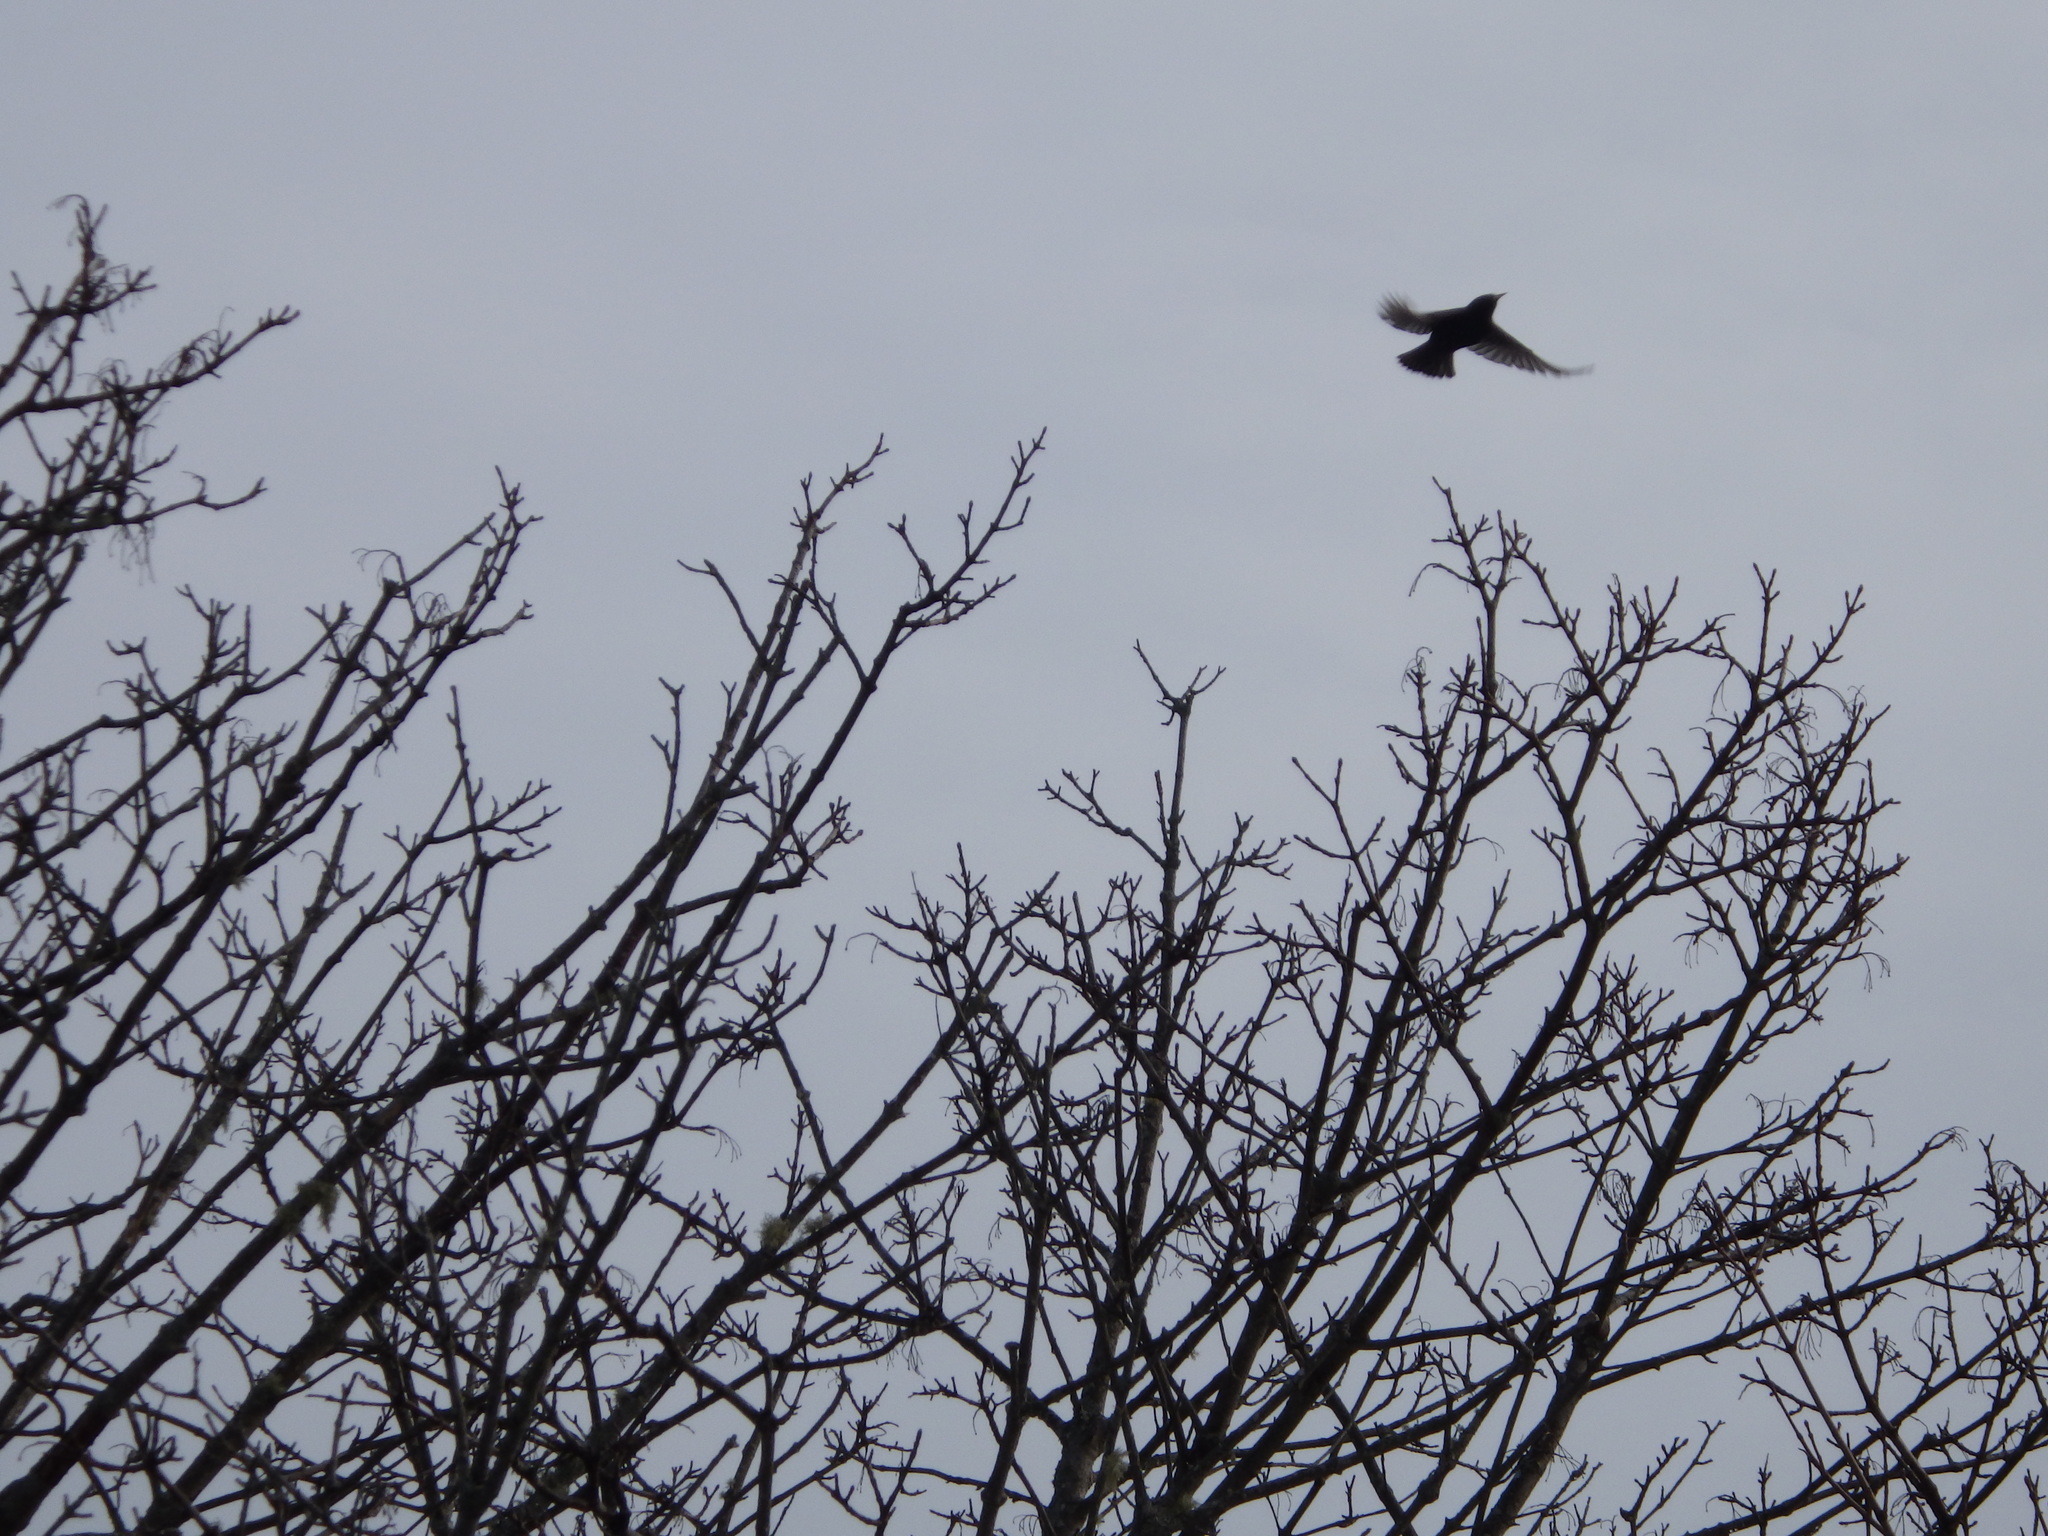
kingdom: Animalia
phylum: Chordata
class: Aves
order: Passeriformes
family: Sturnidae
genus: Sturnus
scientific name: Sturnus vulgaris
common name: Common starling
